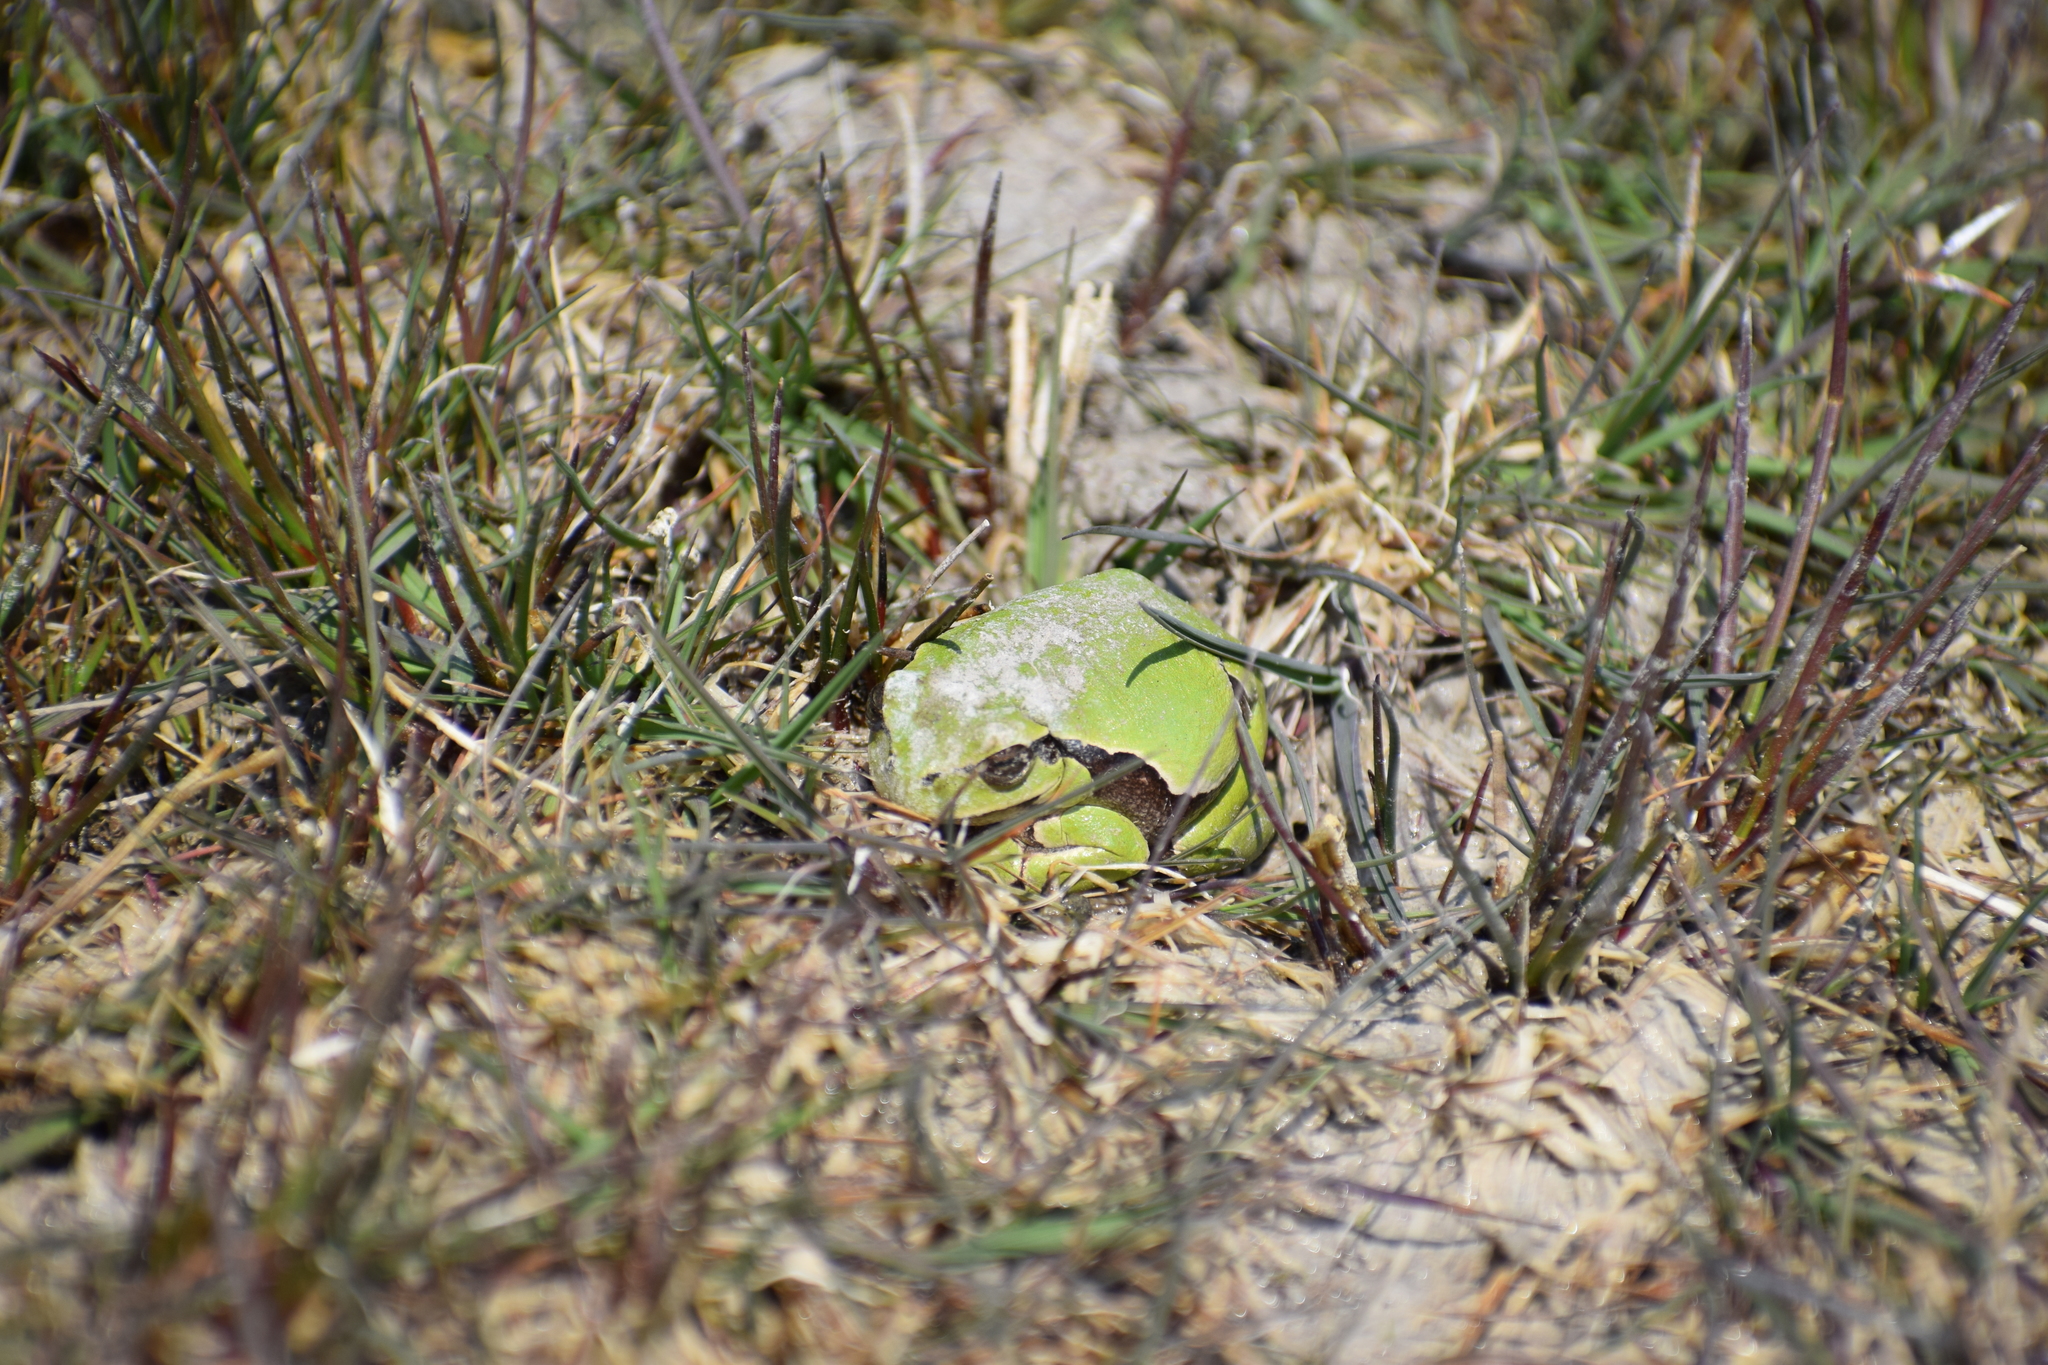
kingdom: Animalia
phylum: Chordata
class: Amphibia
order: Anura
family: Hylidae
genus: Hyla
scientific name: Hyla arborea
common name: Common tree frog
